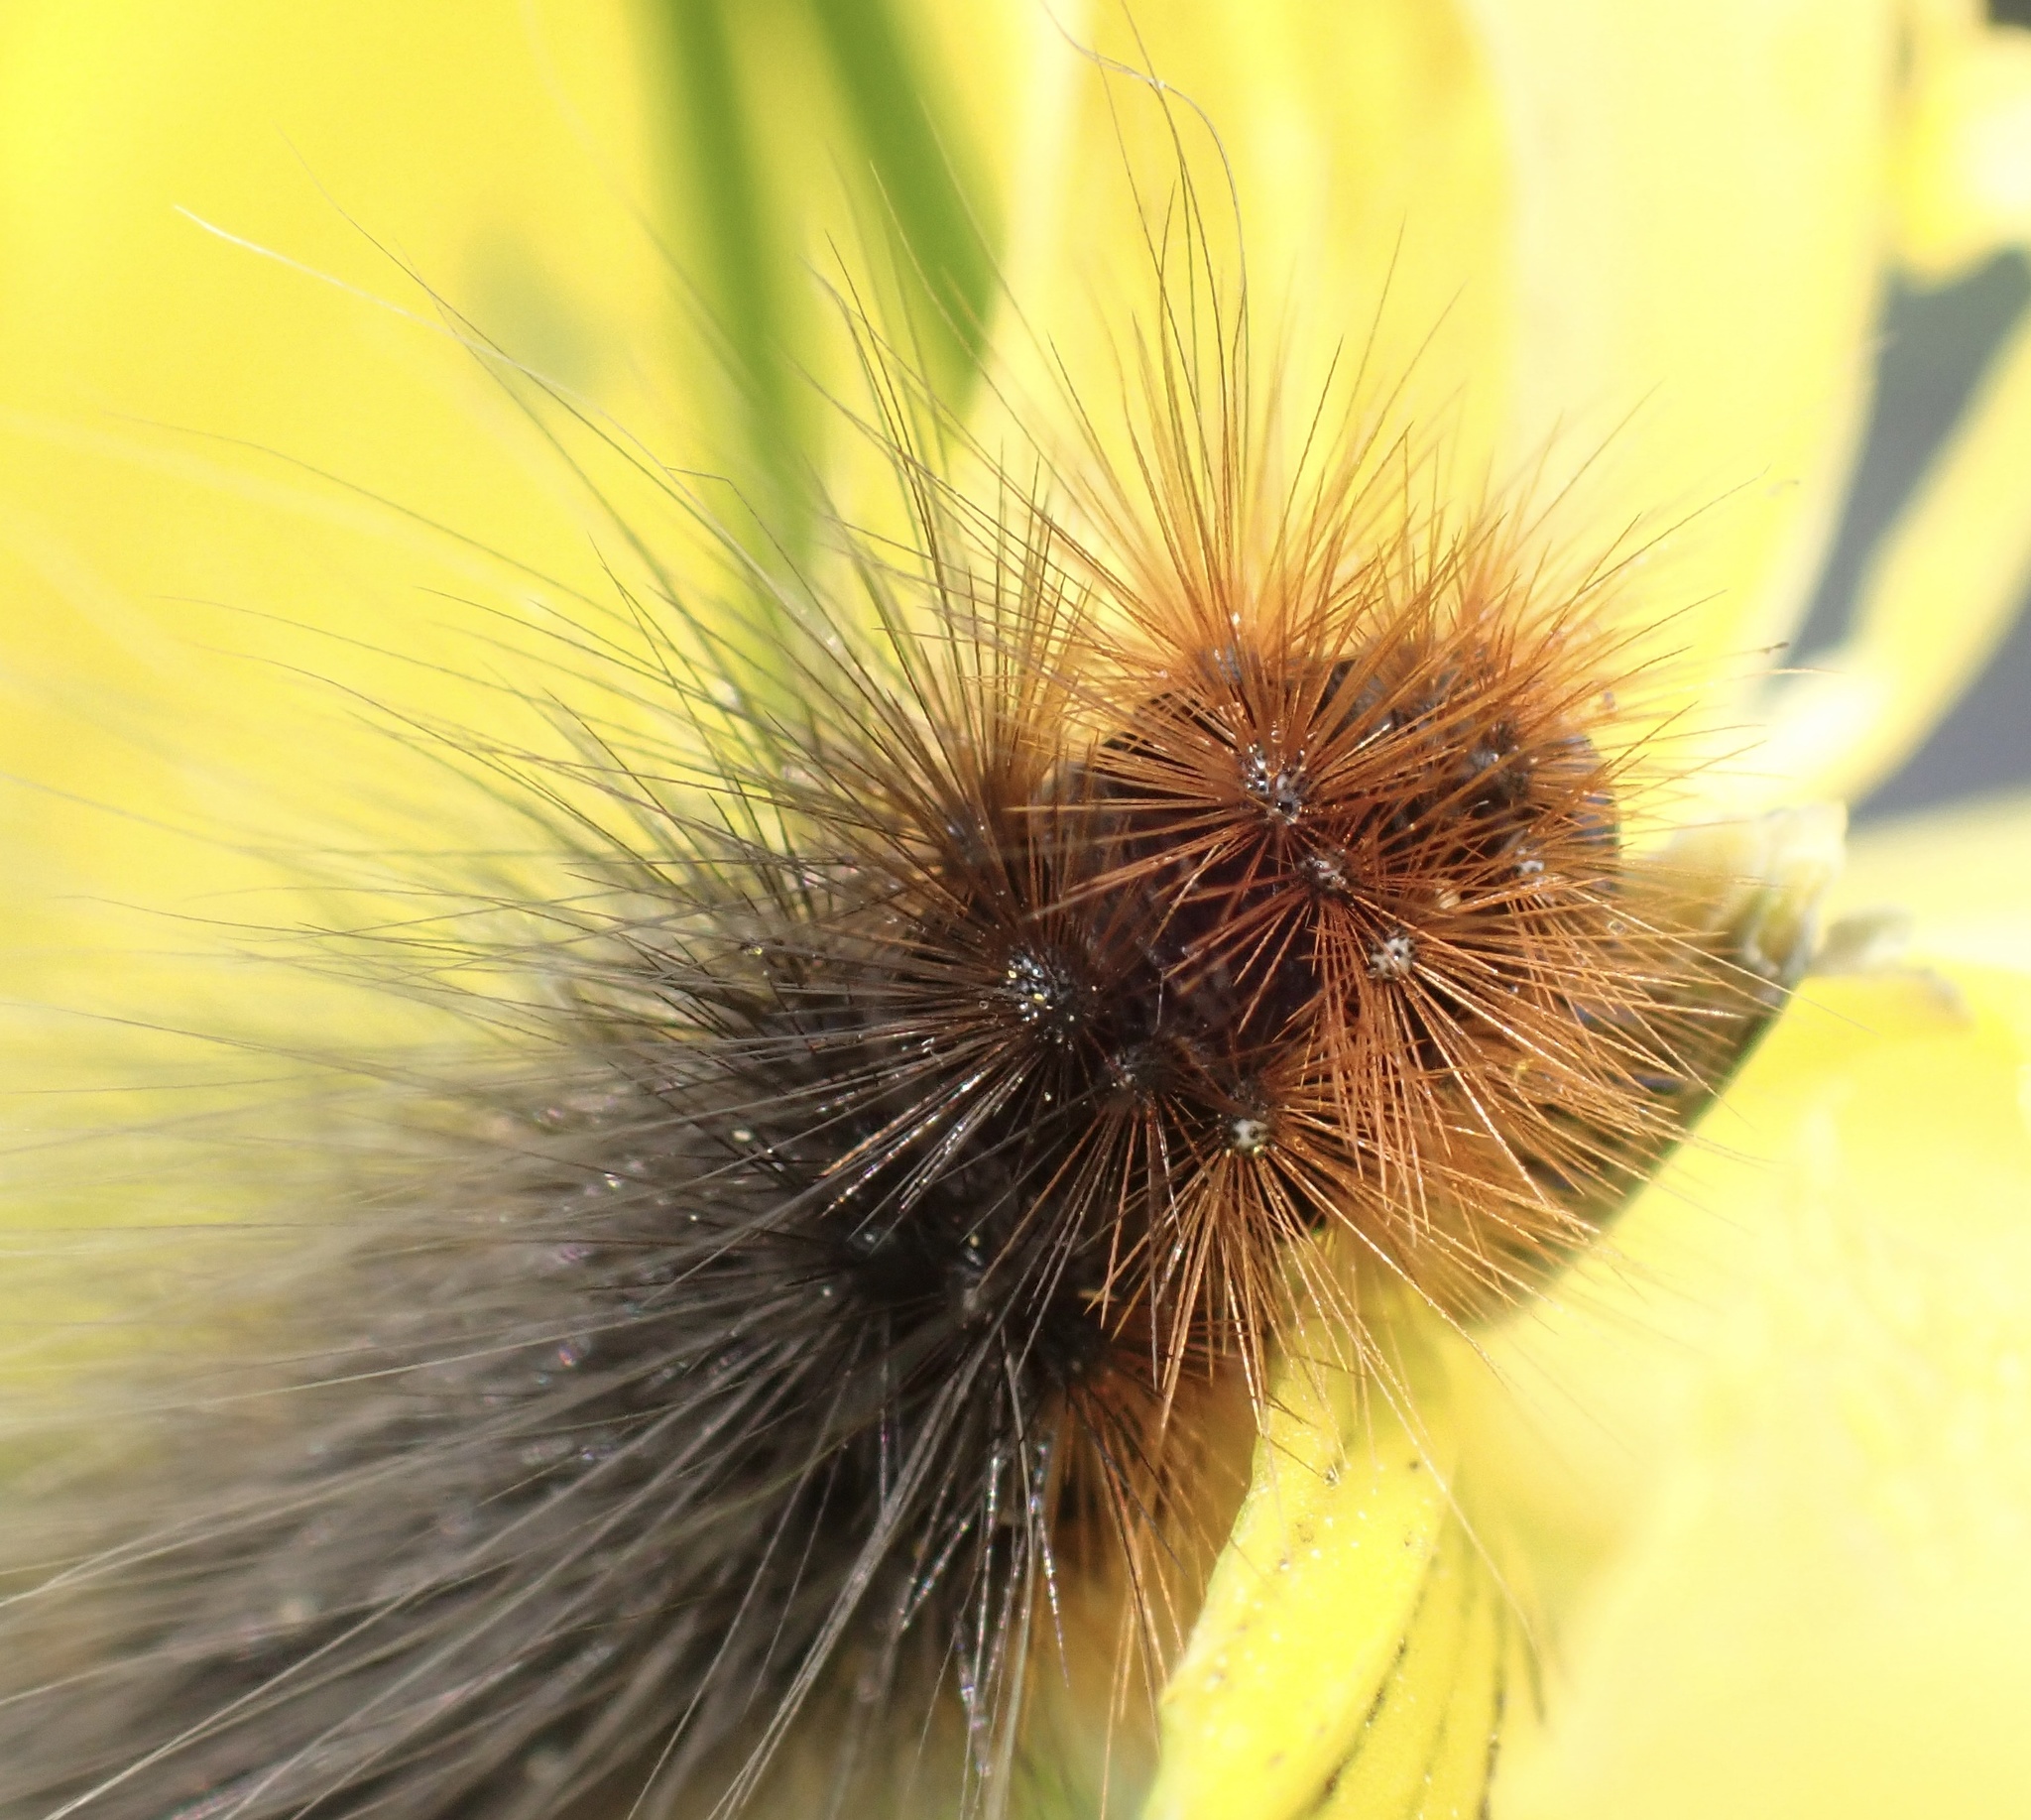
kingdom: Animalia
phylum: Arthropoda
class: Insecta
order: Lepidoptera
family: Erebidae
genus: Arctia
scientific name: Arctia caja
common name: Garden tiger
